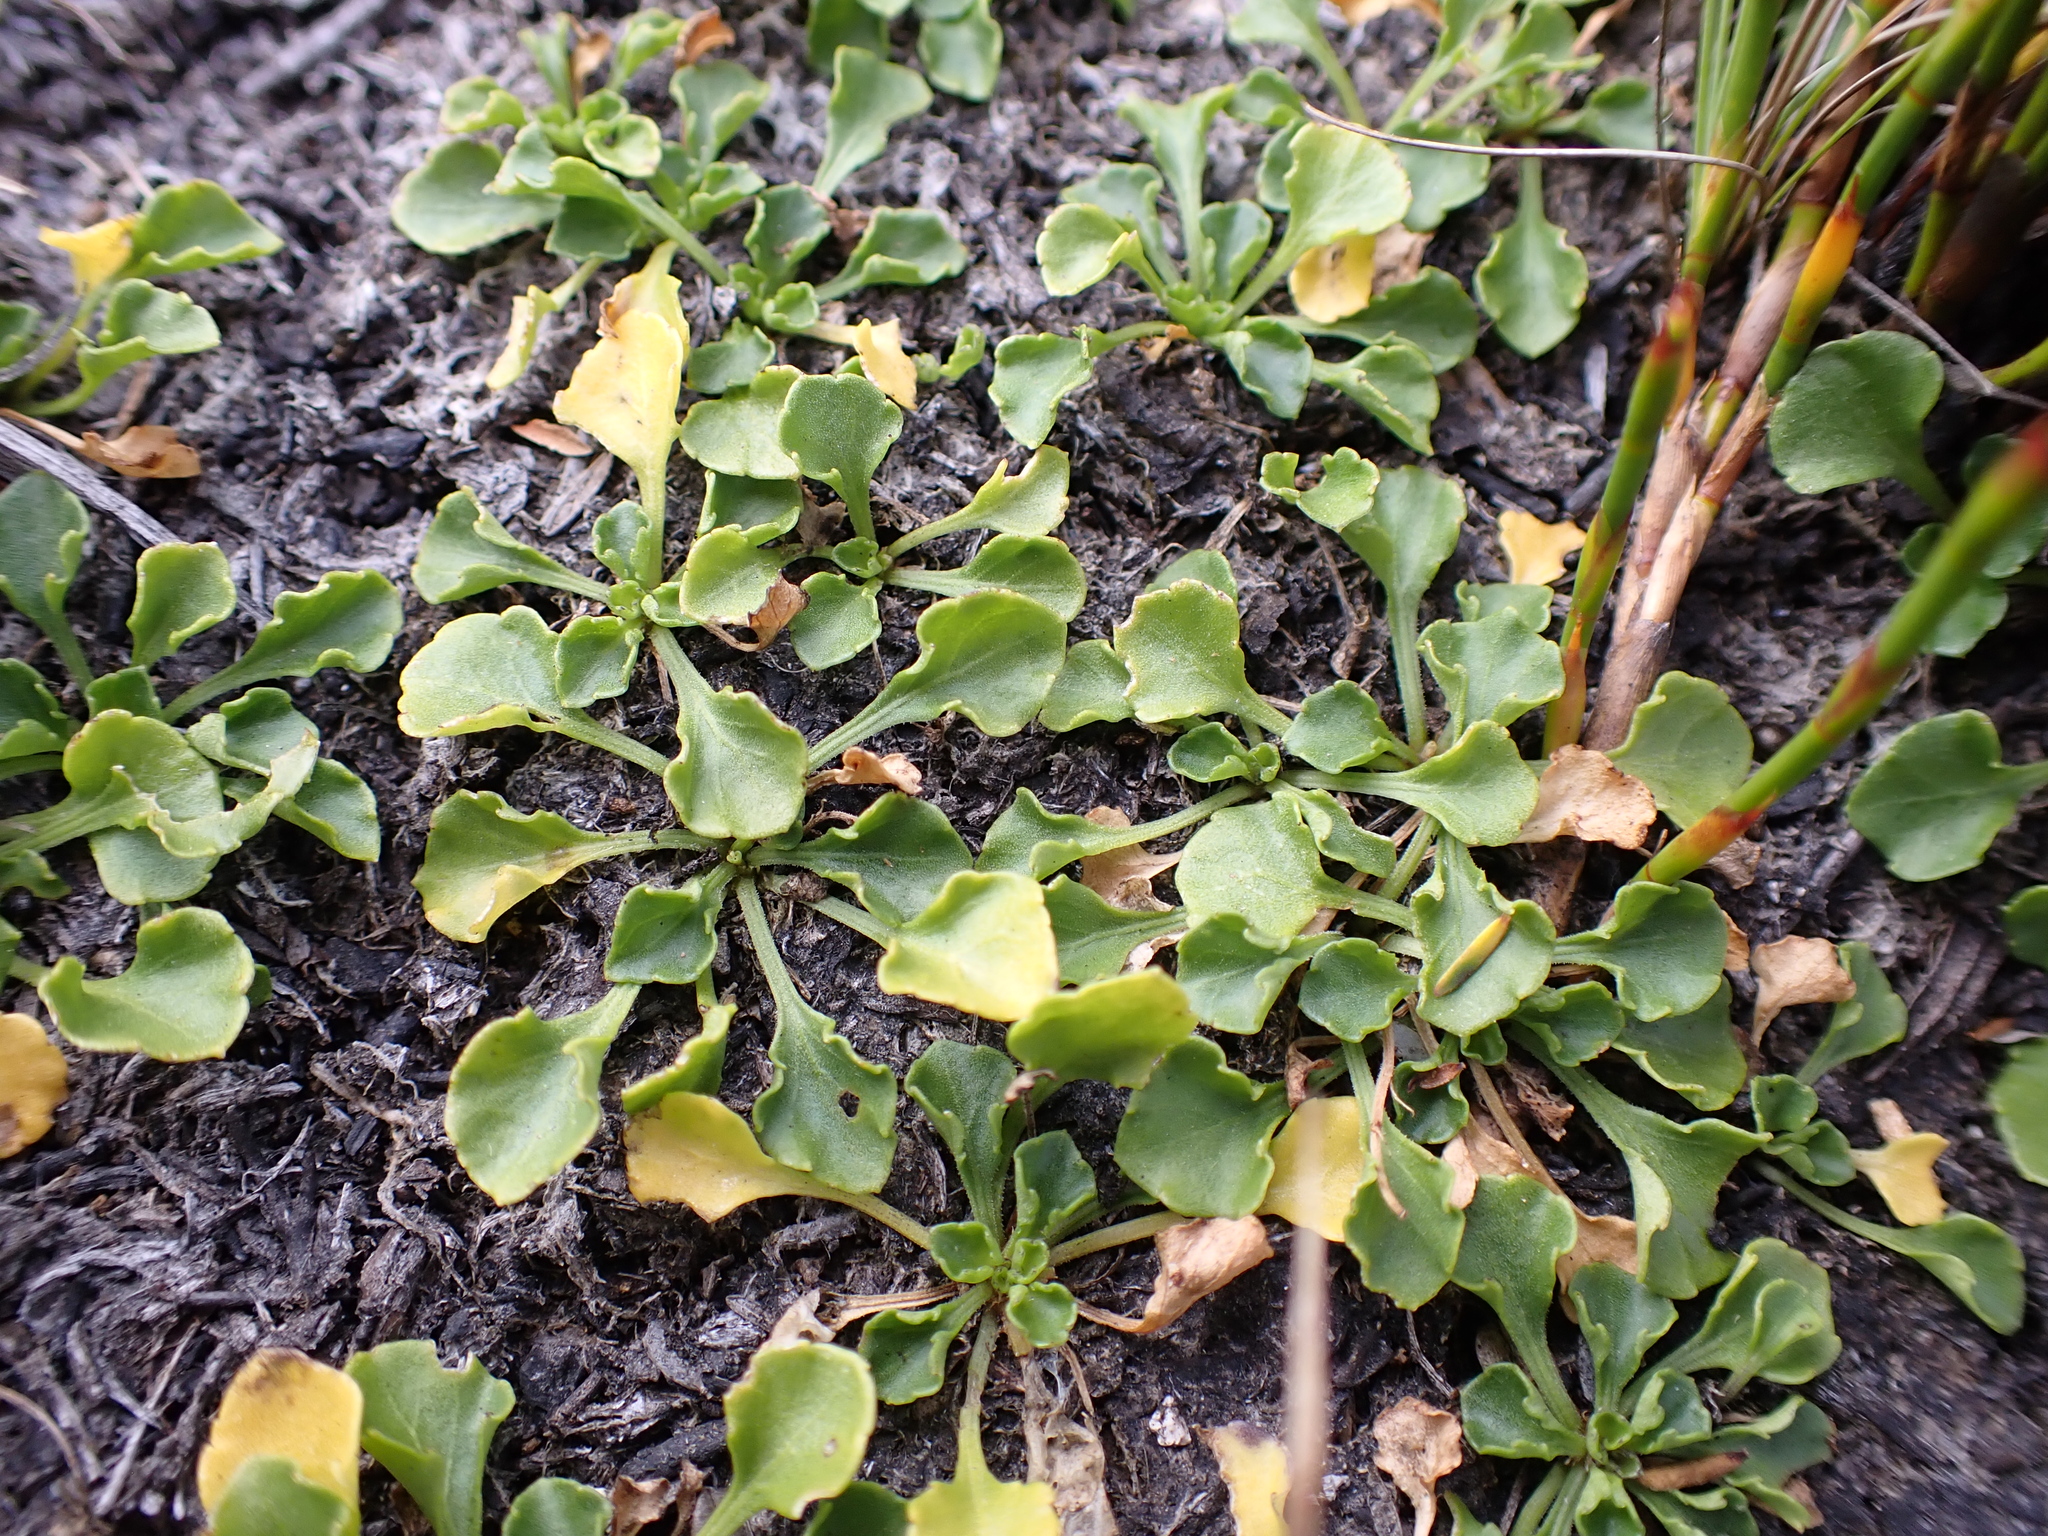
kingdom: Plantae
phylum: Tracheophyta
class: Magnoliopsida
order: Malpighiales
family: Violaceae
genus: Viola
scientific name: Viola fuscoviolacea
